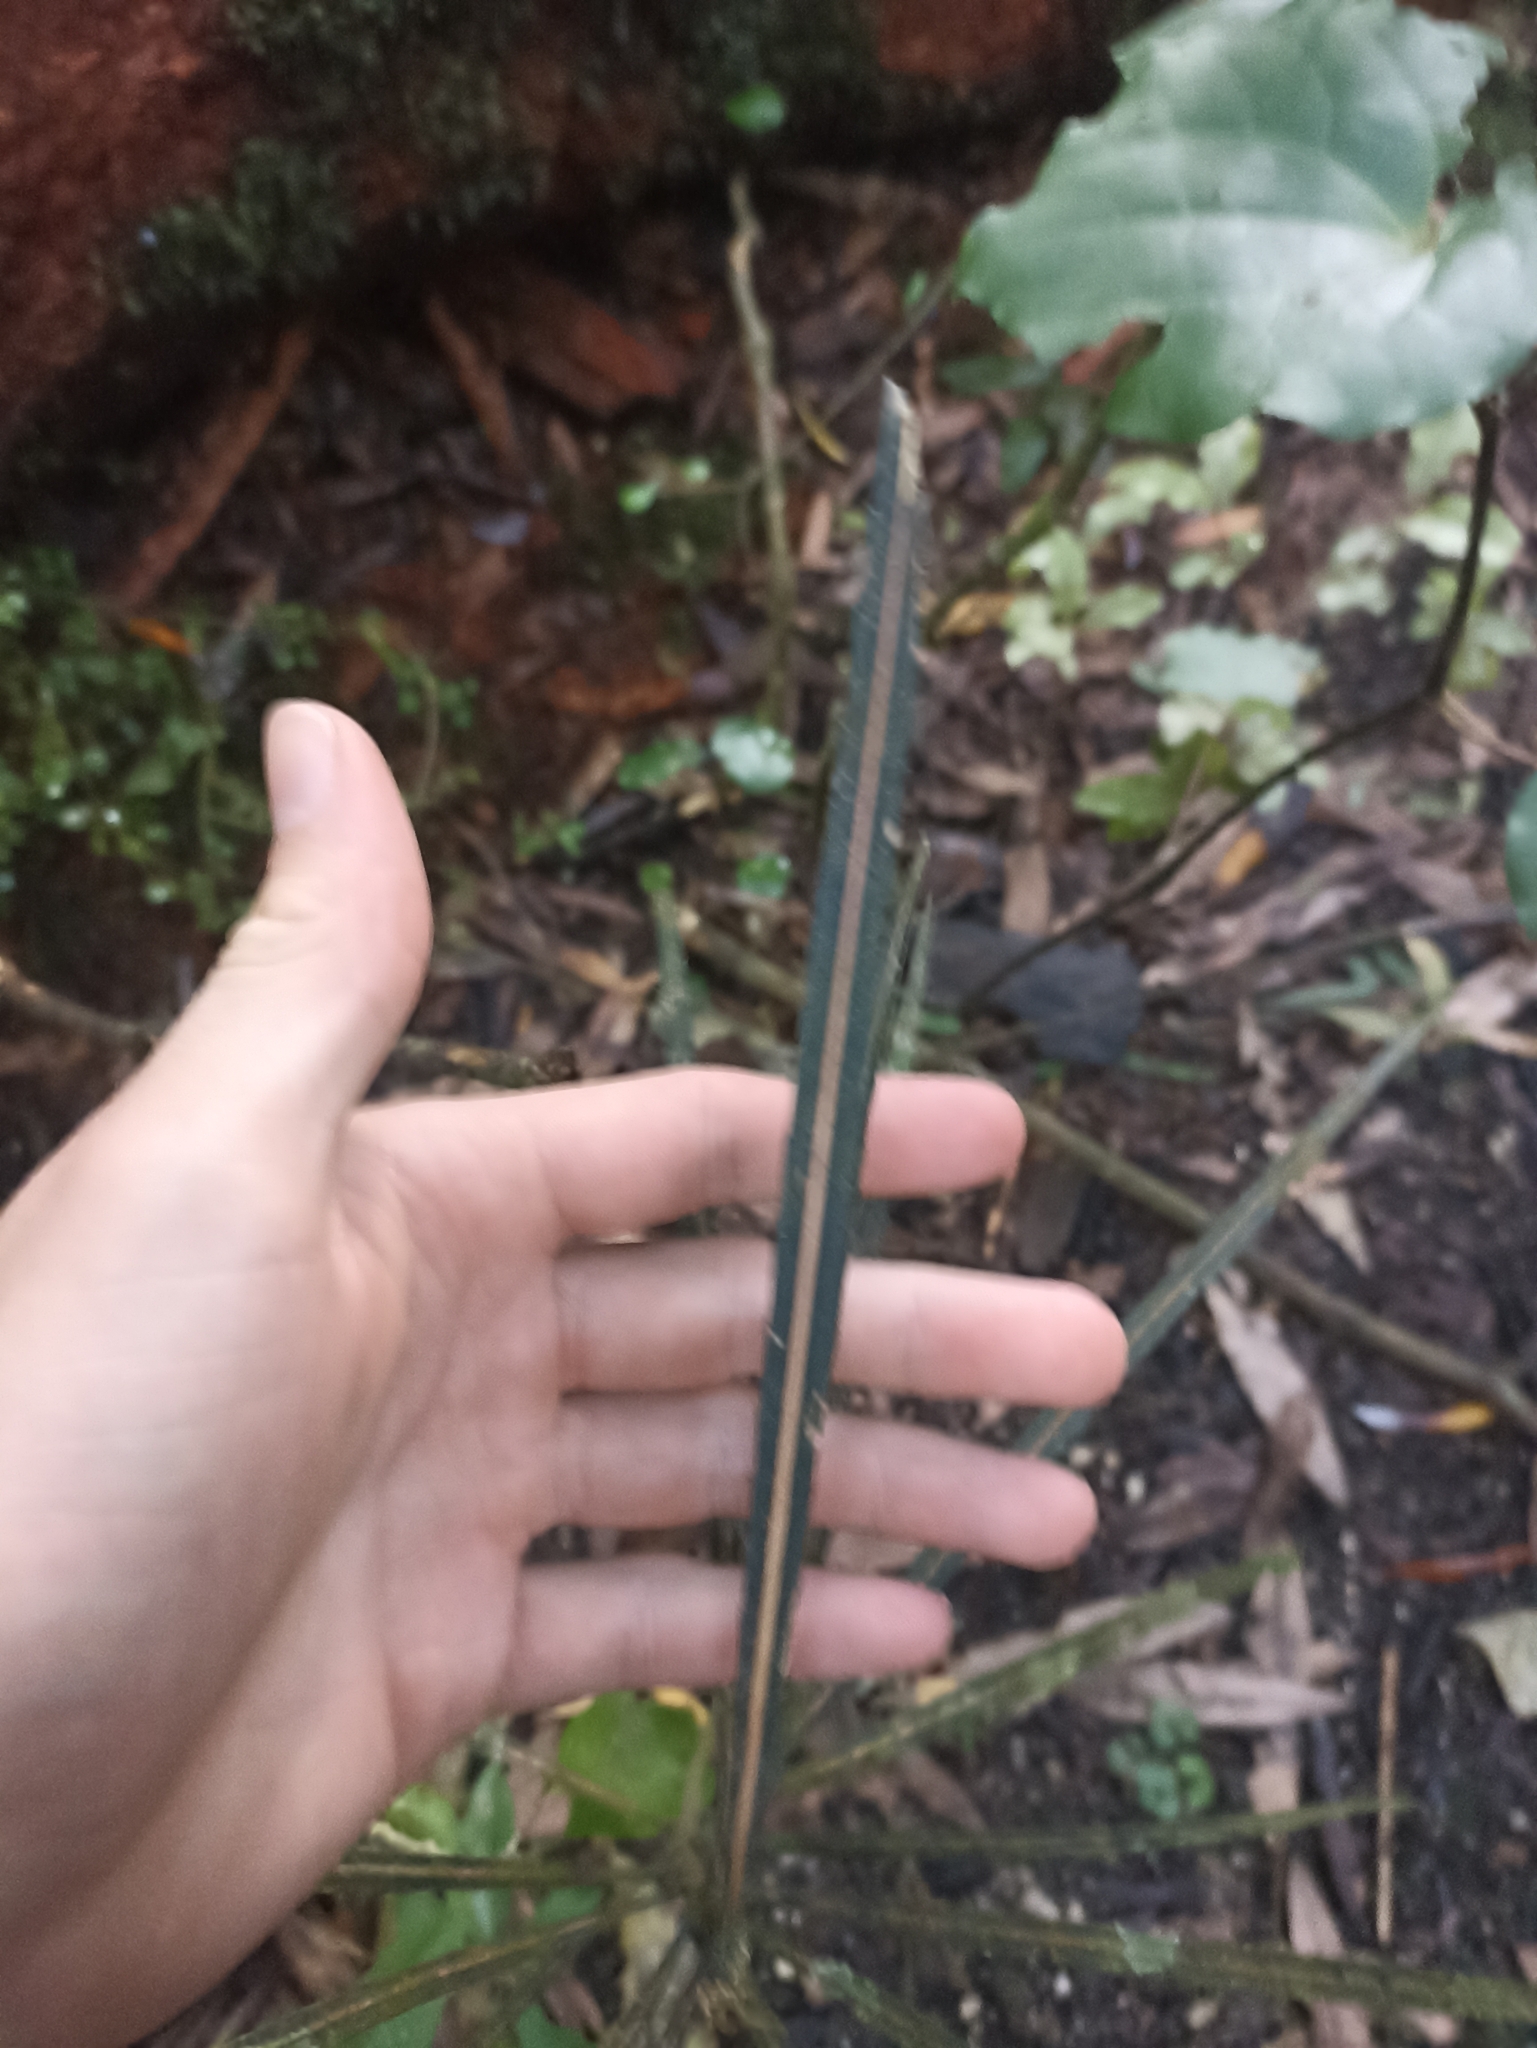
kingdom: Plantae
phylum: Tracheophyta
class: Magnoliopsida
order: Apiales
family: Araliaceae
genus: Pseudopanax
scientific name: Pseudopanax crassifolius
